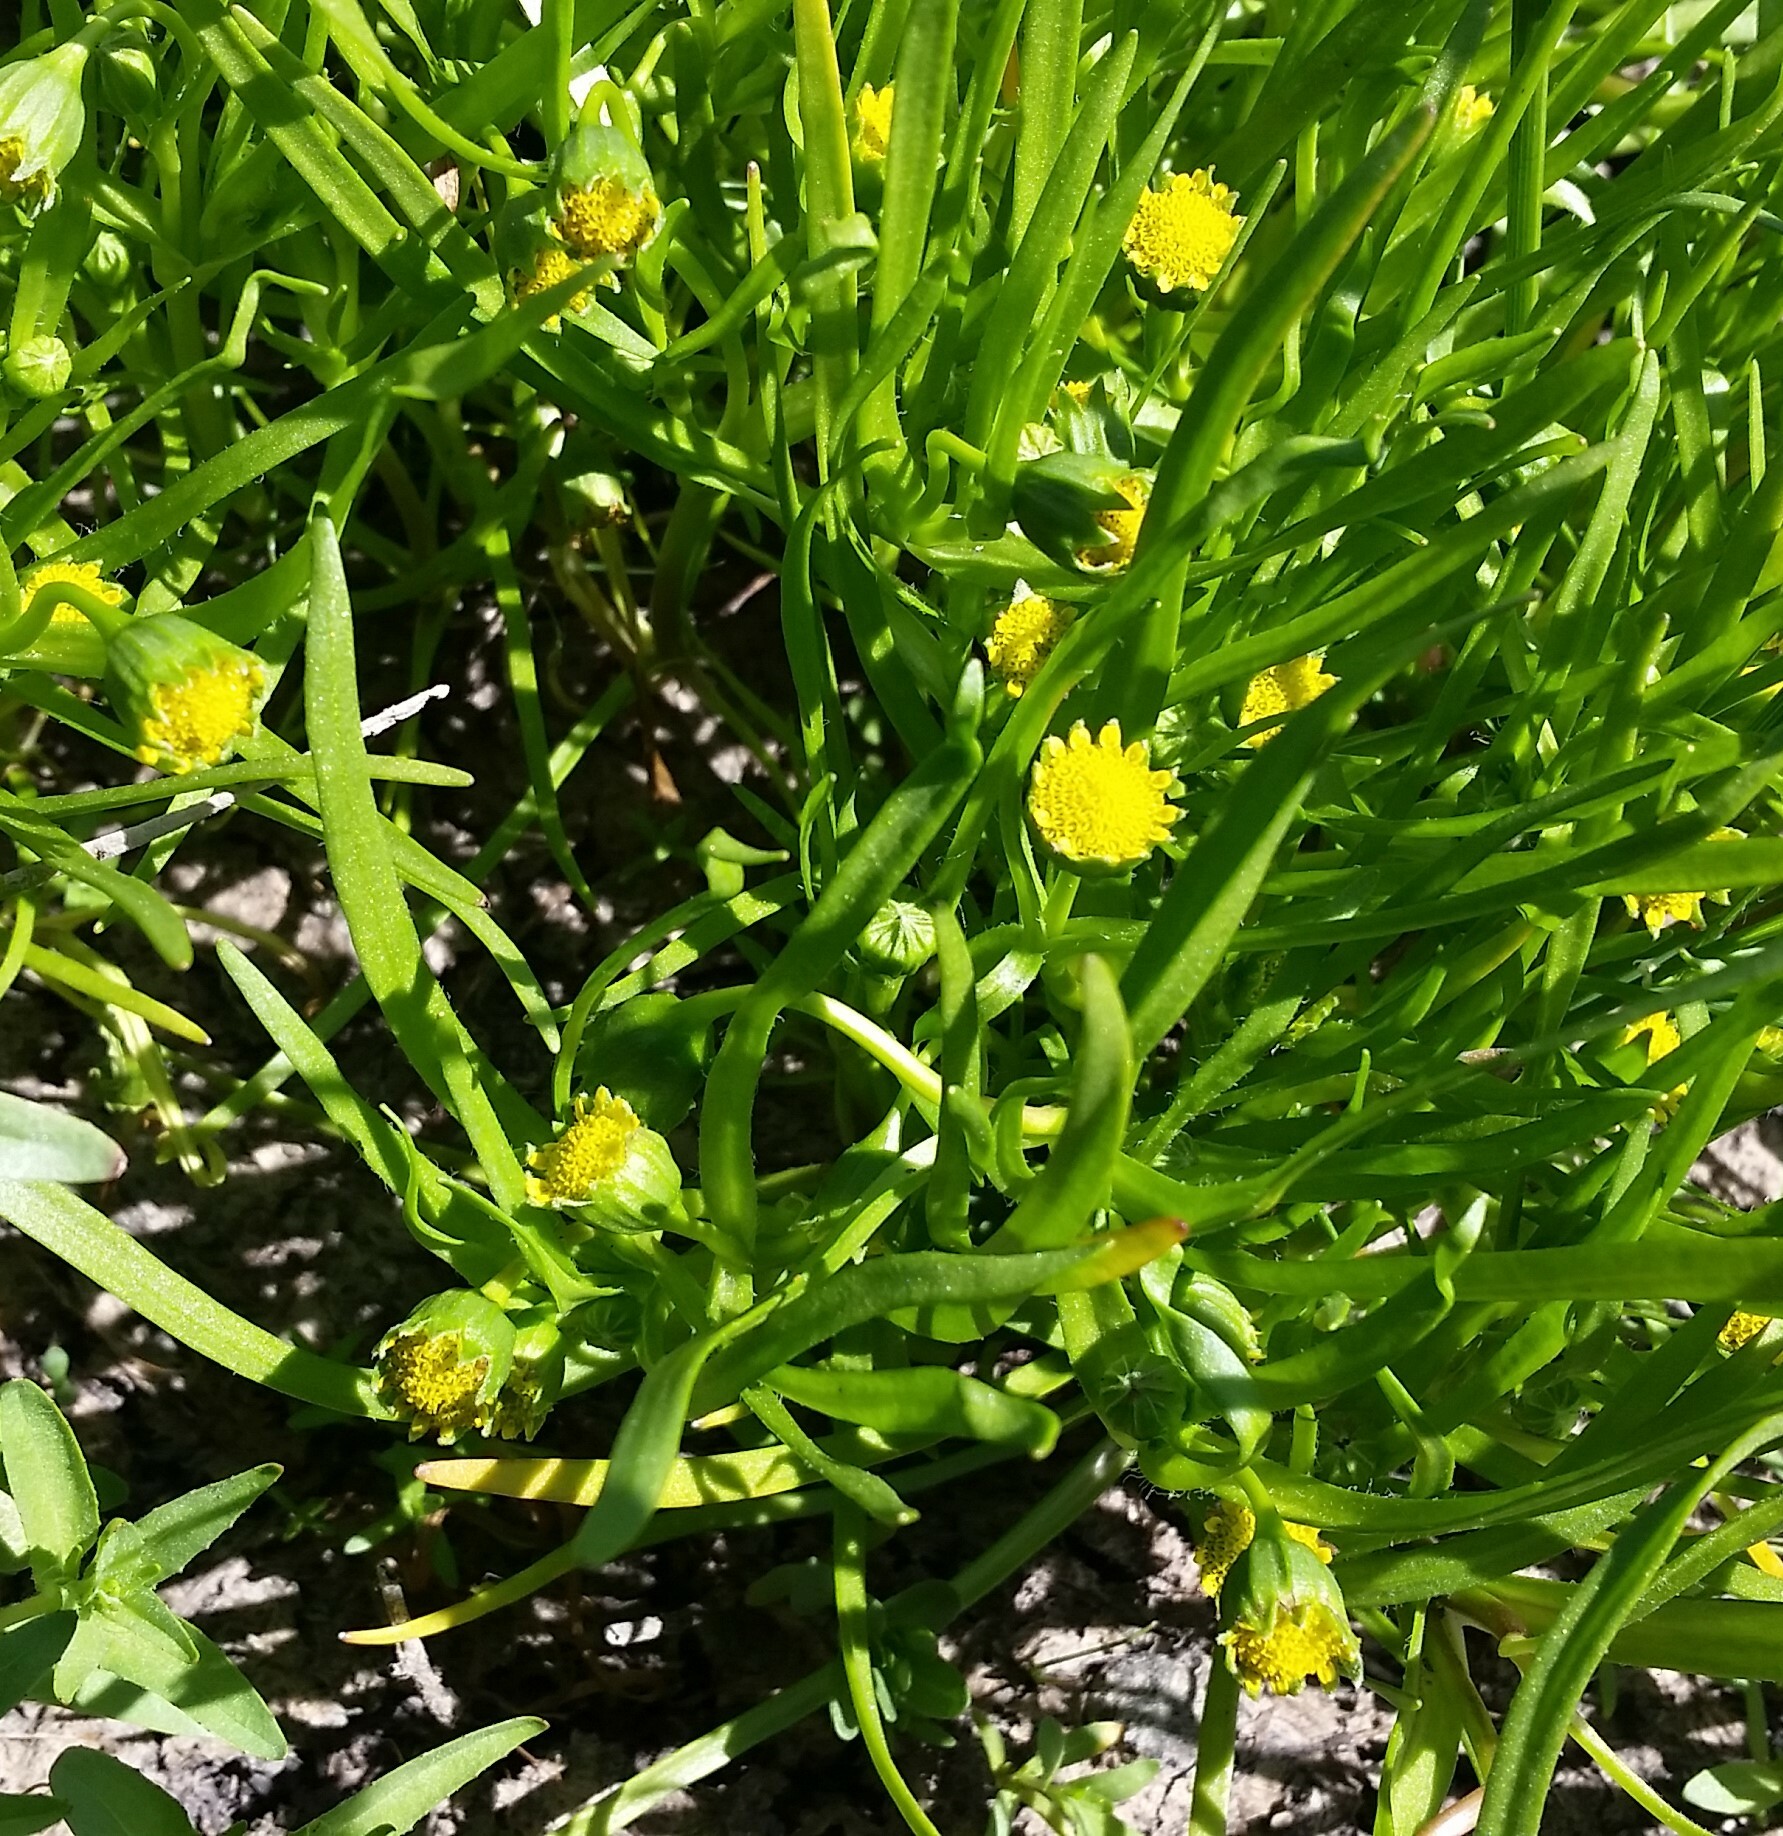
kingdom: Plantae
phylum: Tracheophyta
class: Magnoliopsida
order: Asterales
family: Asteraceae
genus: Lasthenia
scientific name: Lasthenia glaberrima
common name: Smooth goldfields
